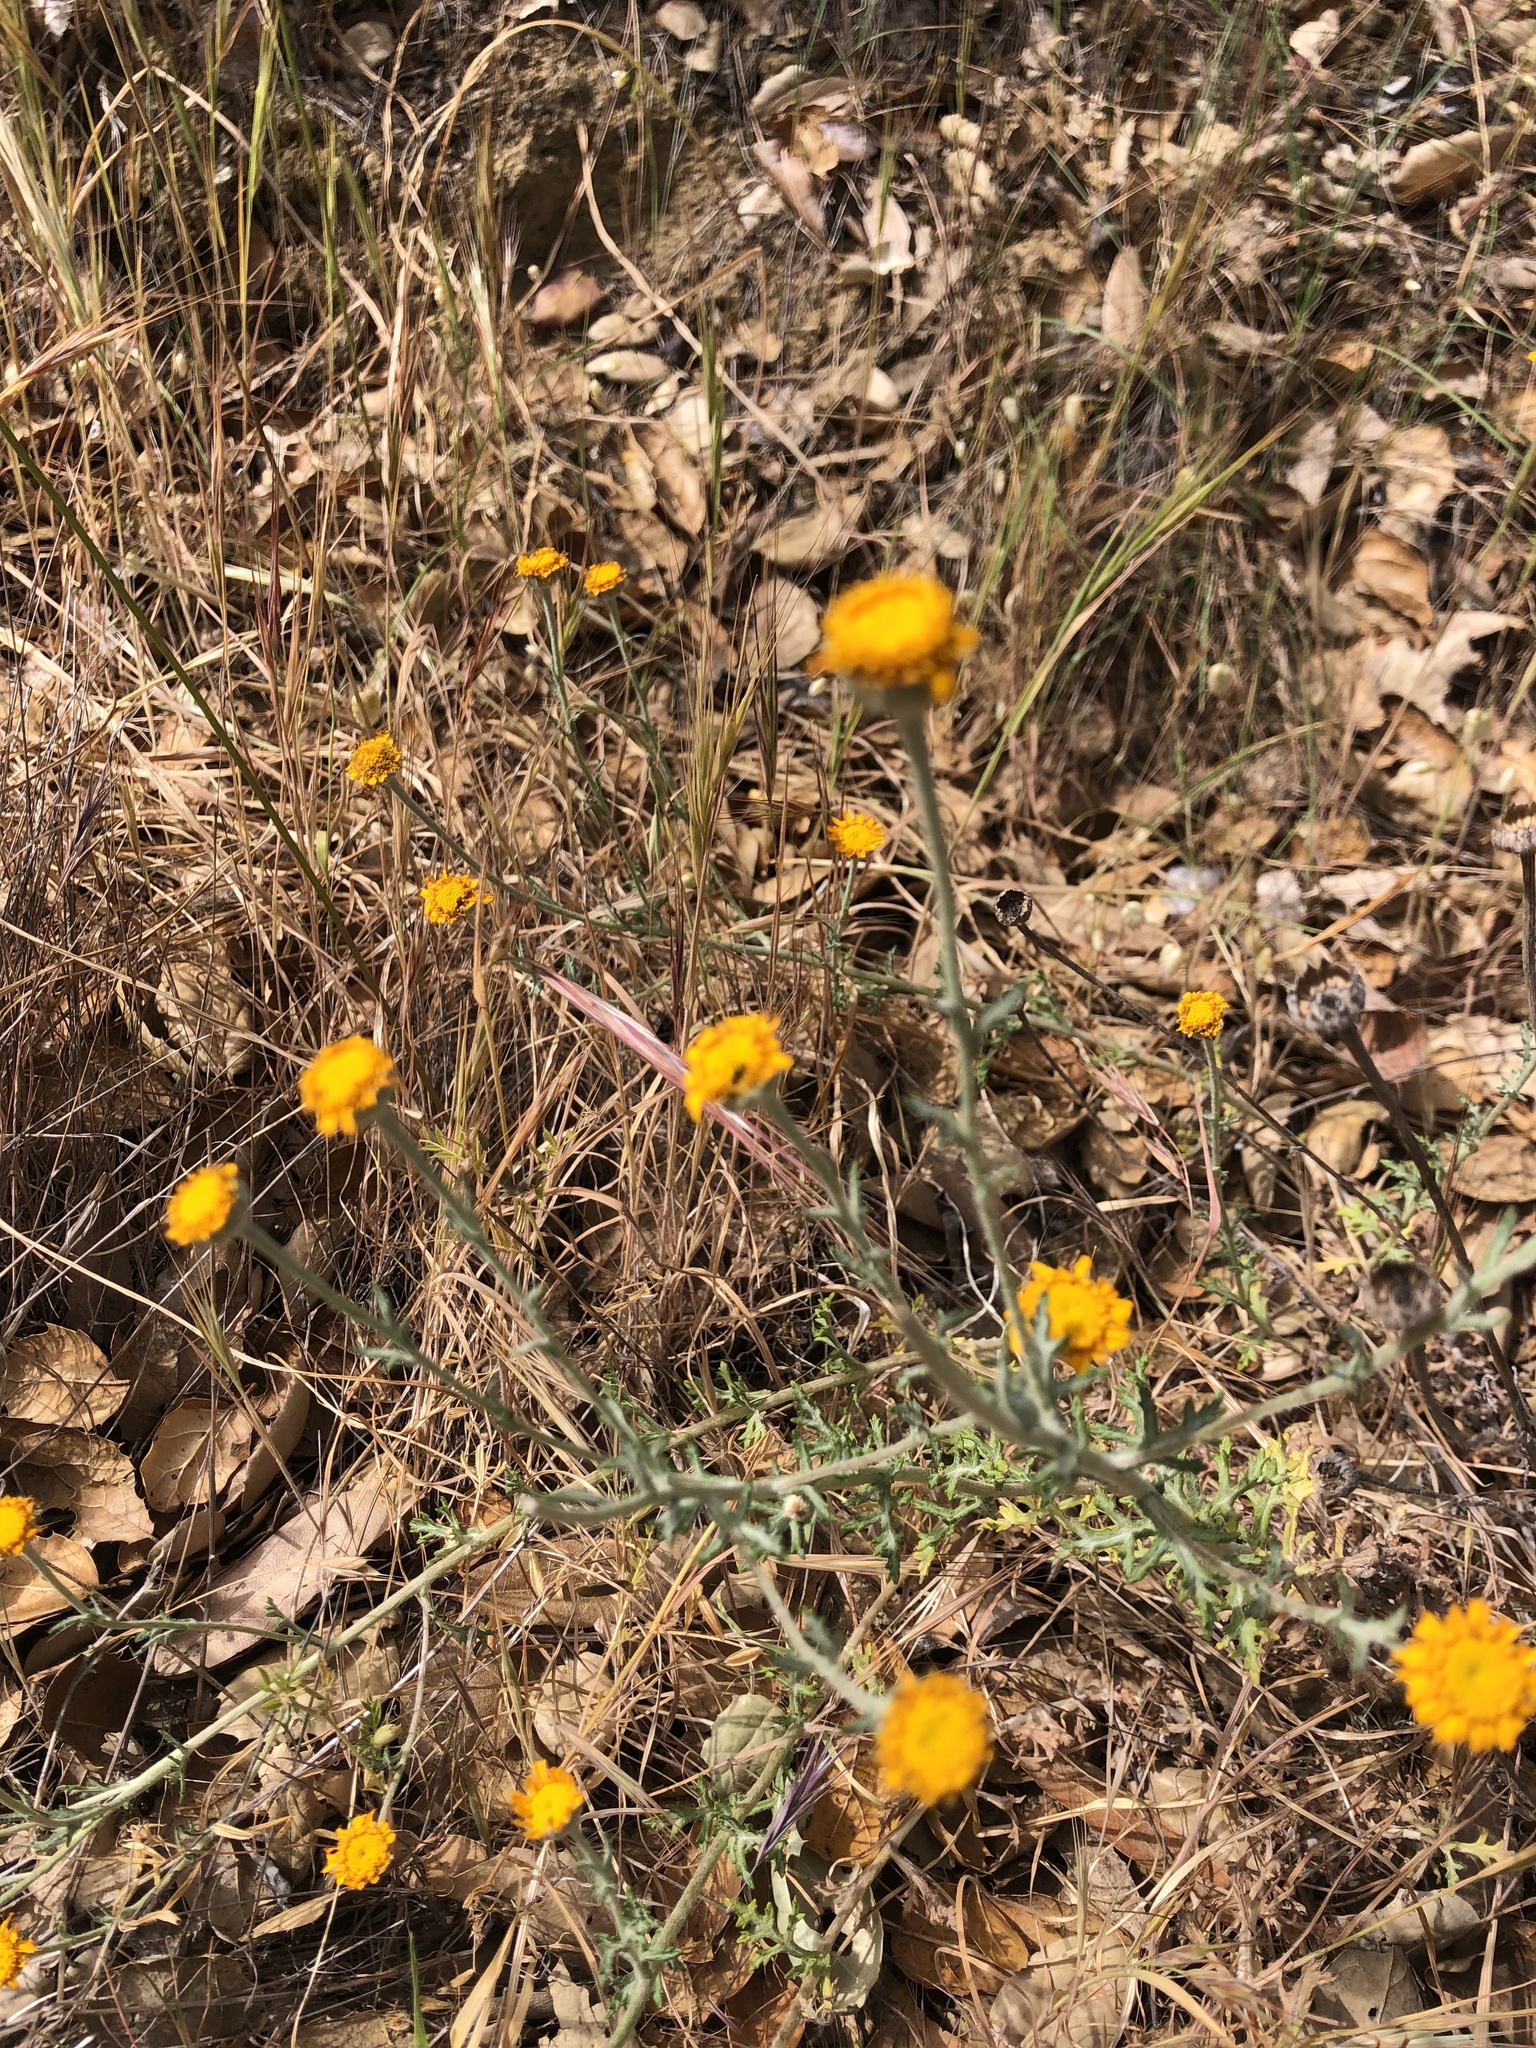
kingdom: Plantae
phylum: Tracheophyta
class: Magnoliopsida
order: Asterales
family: Asteraceae
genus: Eriophyllum
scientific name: Eriophyllum lanatum
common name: Common woolly-sunflower
